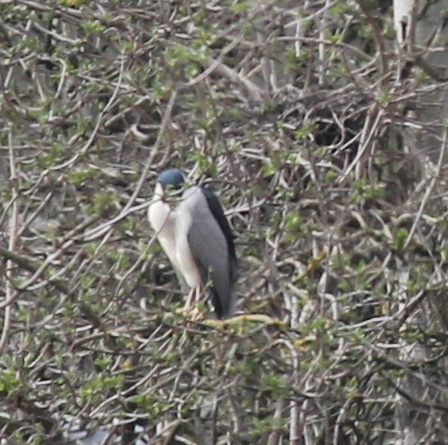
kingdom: Animalia
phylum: Chordata
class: Aves
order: Pelecaniformes
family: Ardeidae
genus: Nycticorax
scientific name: Nycticorax nycticorax
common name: Black-crowned night heron
